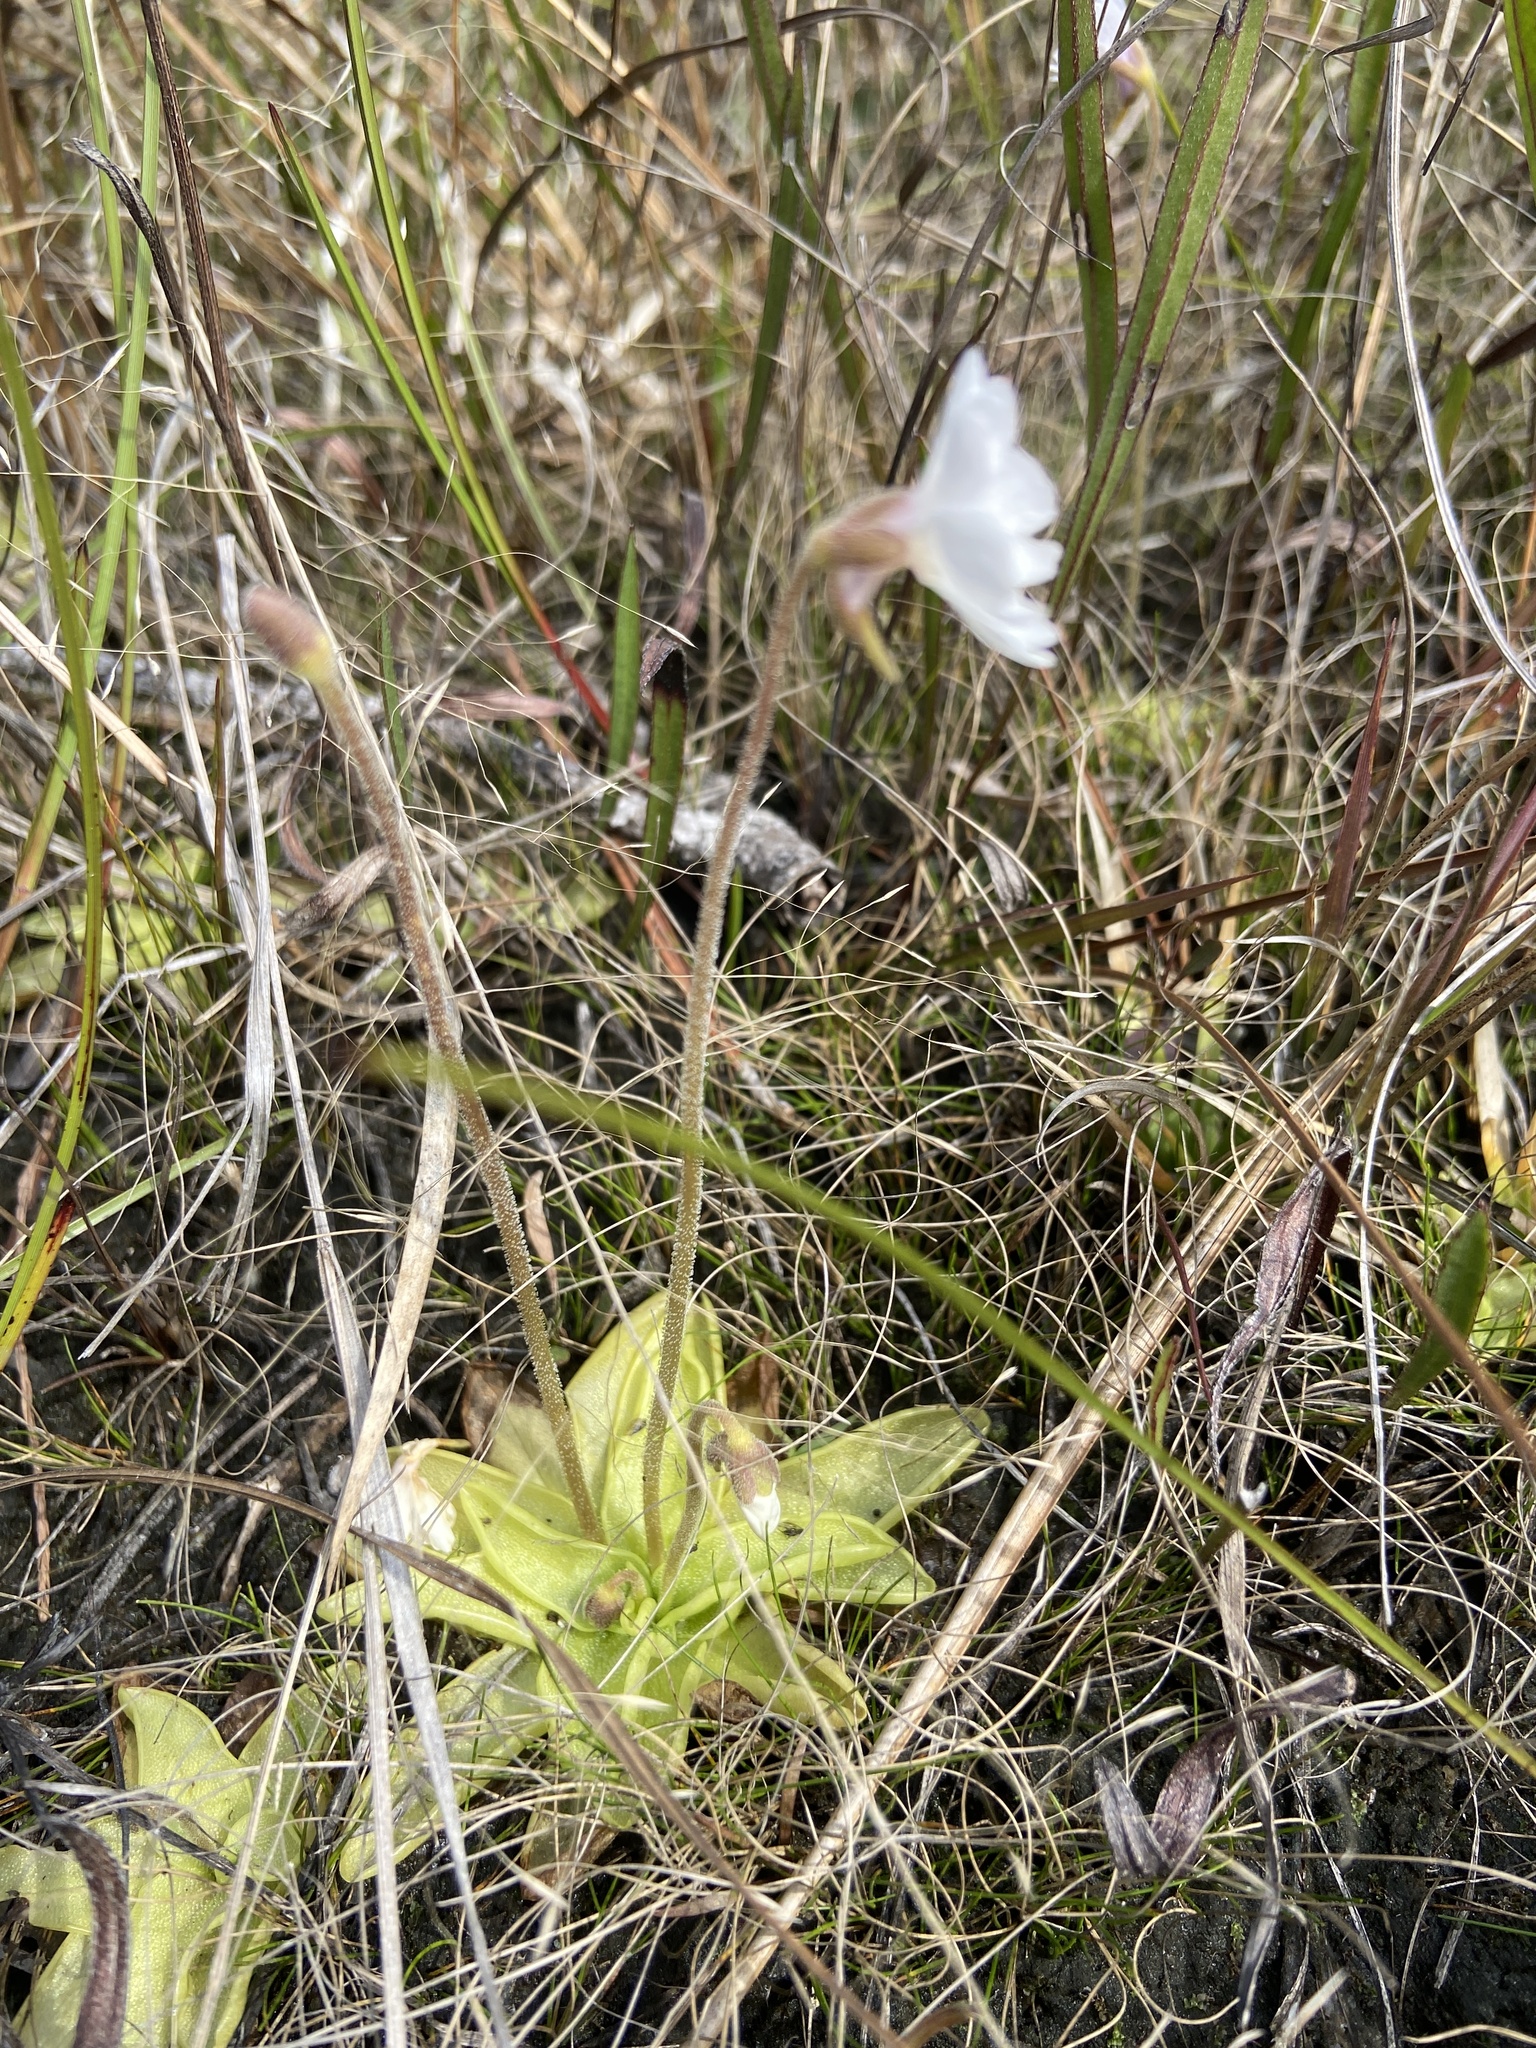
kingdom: Plantae
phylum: Tracheophyta
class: Magnoliopsida
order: Lamiales
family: Lentibulariaceae
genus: Pinguicula
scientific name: Pinguicula ionantha
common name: Godfrey's butterwort
